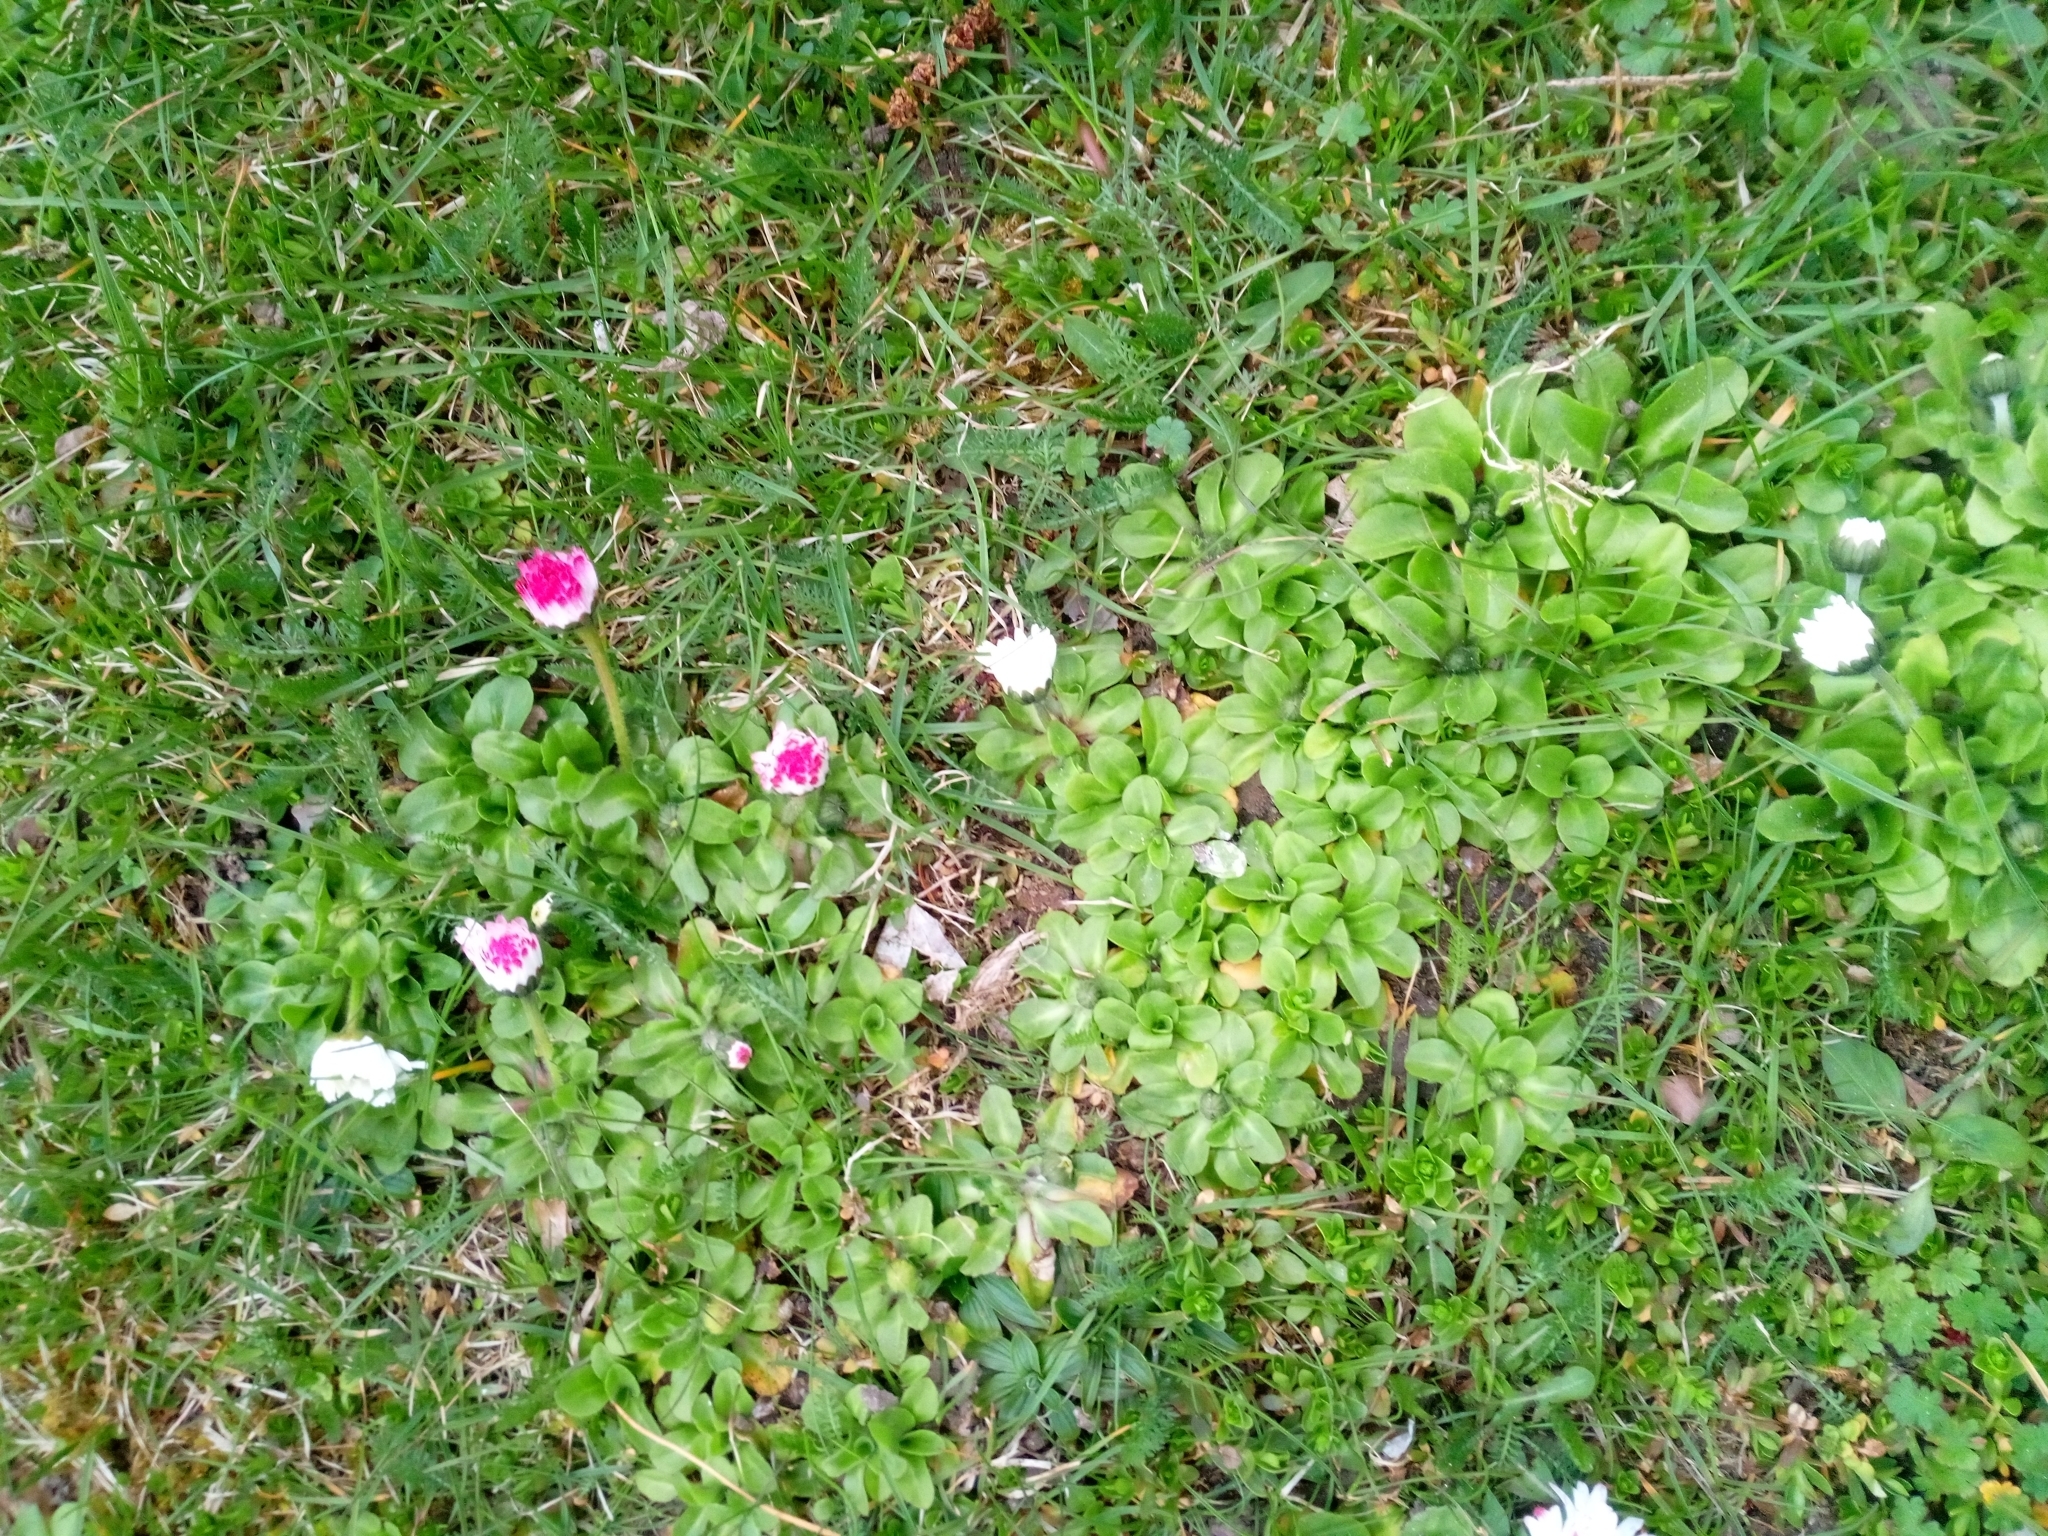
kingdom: Plantae
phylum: Tracheophyta
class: Magnoliopsida
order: Asterales
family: Asteraceae
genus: Bellis
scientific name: Bellis perennis
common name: Lawndaisy
